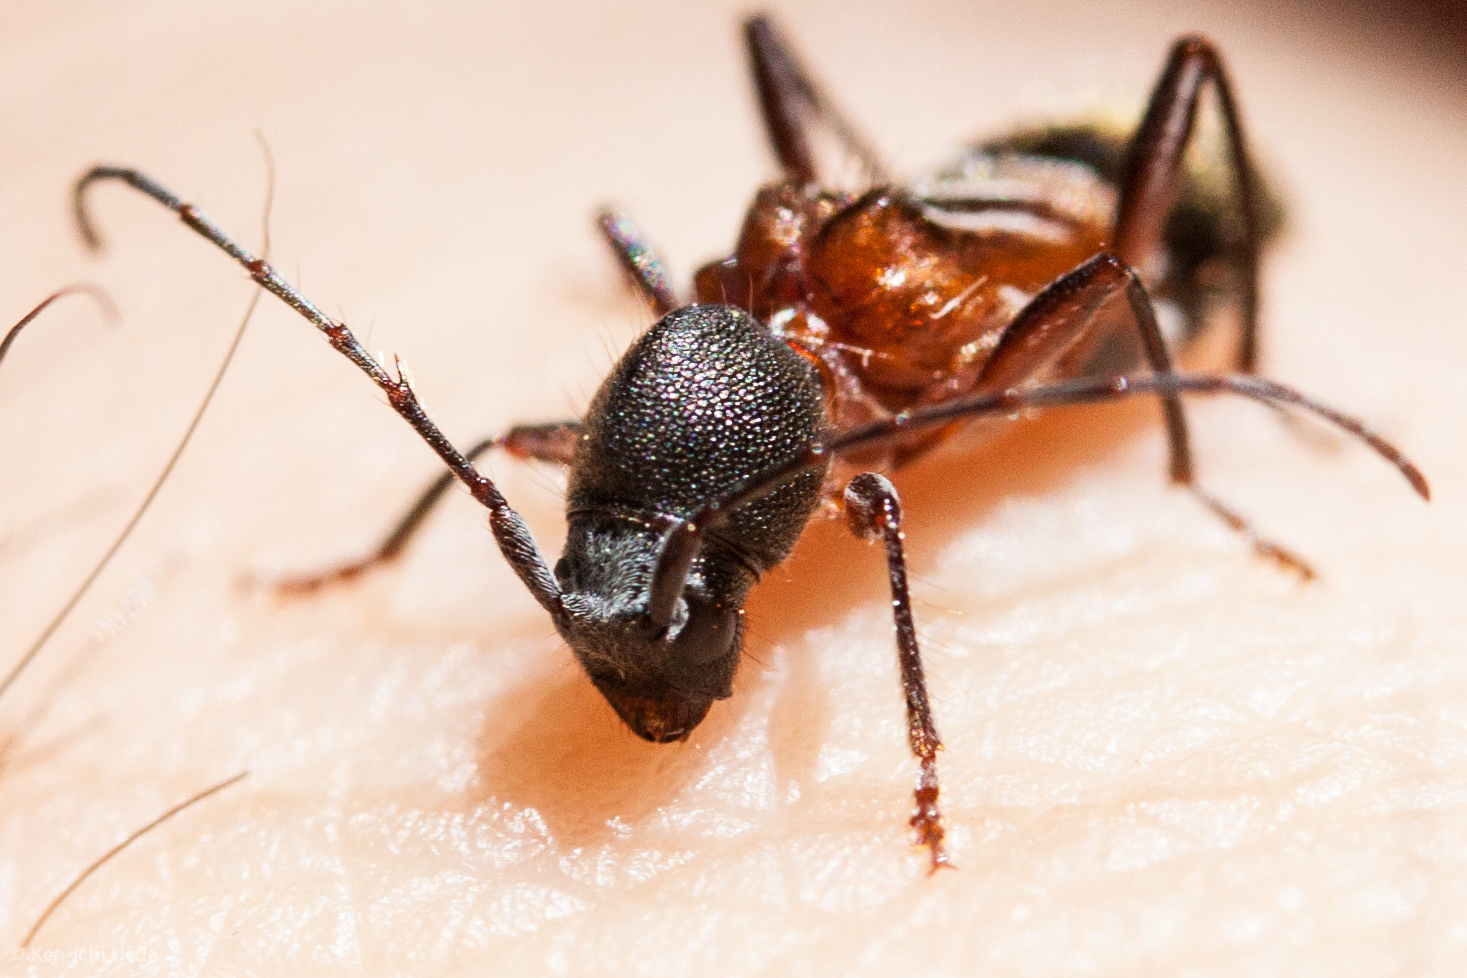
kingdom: Animalia
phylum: Arthropoda
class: Insecta
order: Coleoptera
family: Cerambycidae
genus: Cyrtophorus
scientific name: Cyrtophorus verrucosus
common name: Ant-like longhorn beetle
